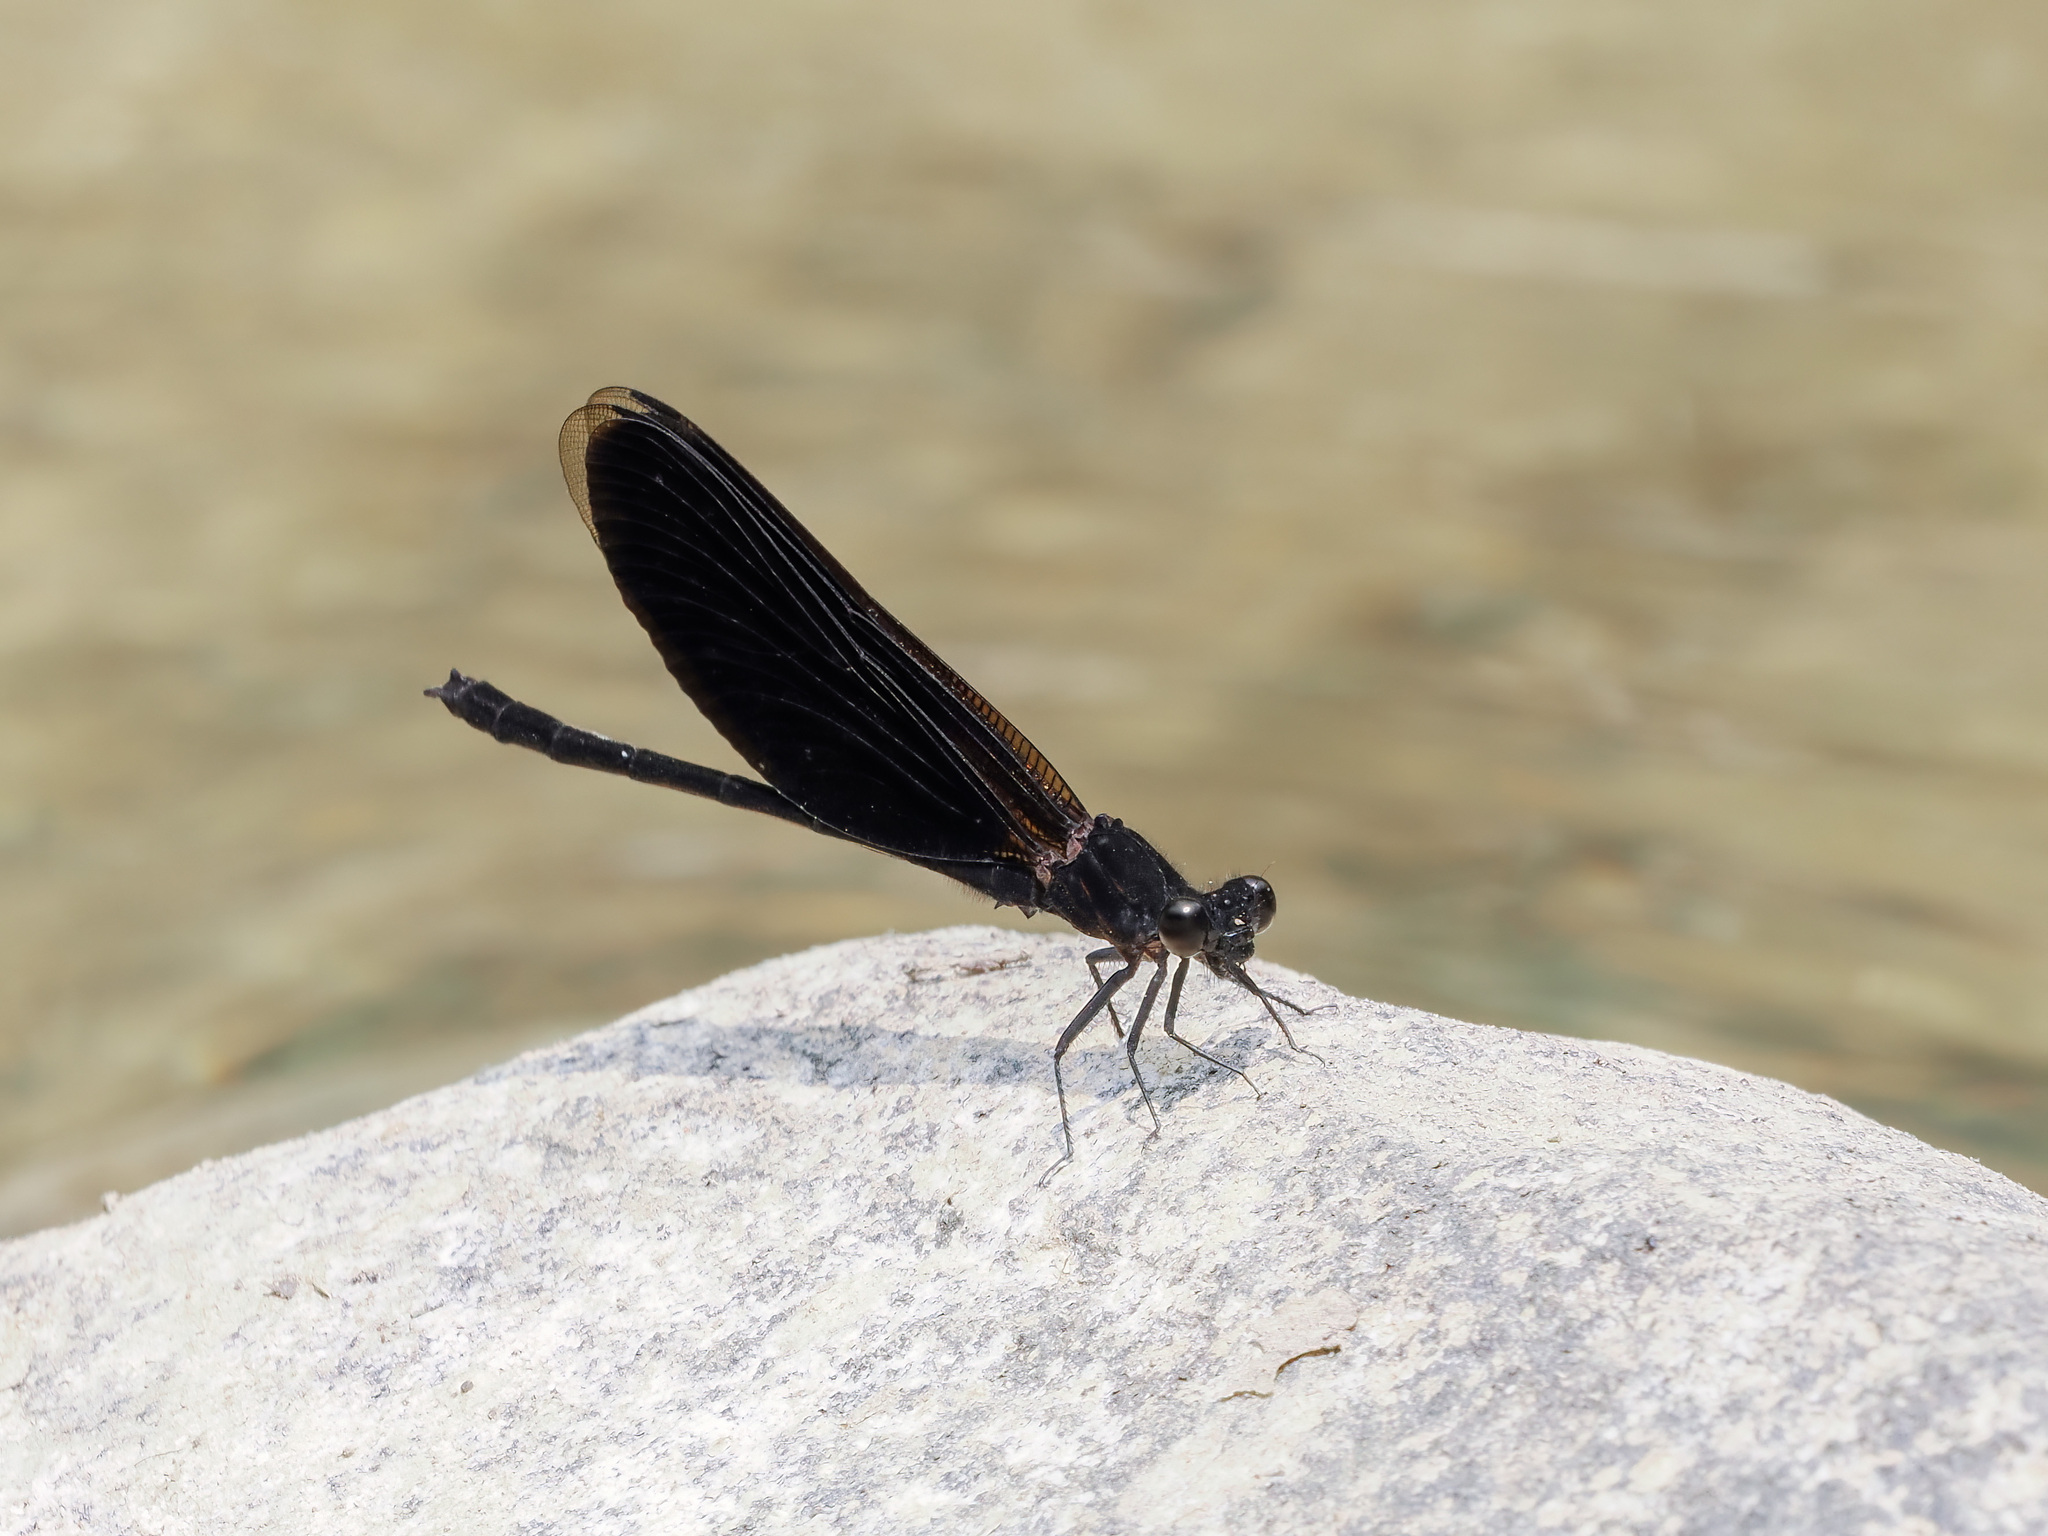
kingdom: Animalia
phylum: Arthropoda
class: Insecta
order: Odonata
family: Euphaeidae
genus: Euphaea
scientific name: Euphaea masoni
